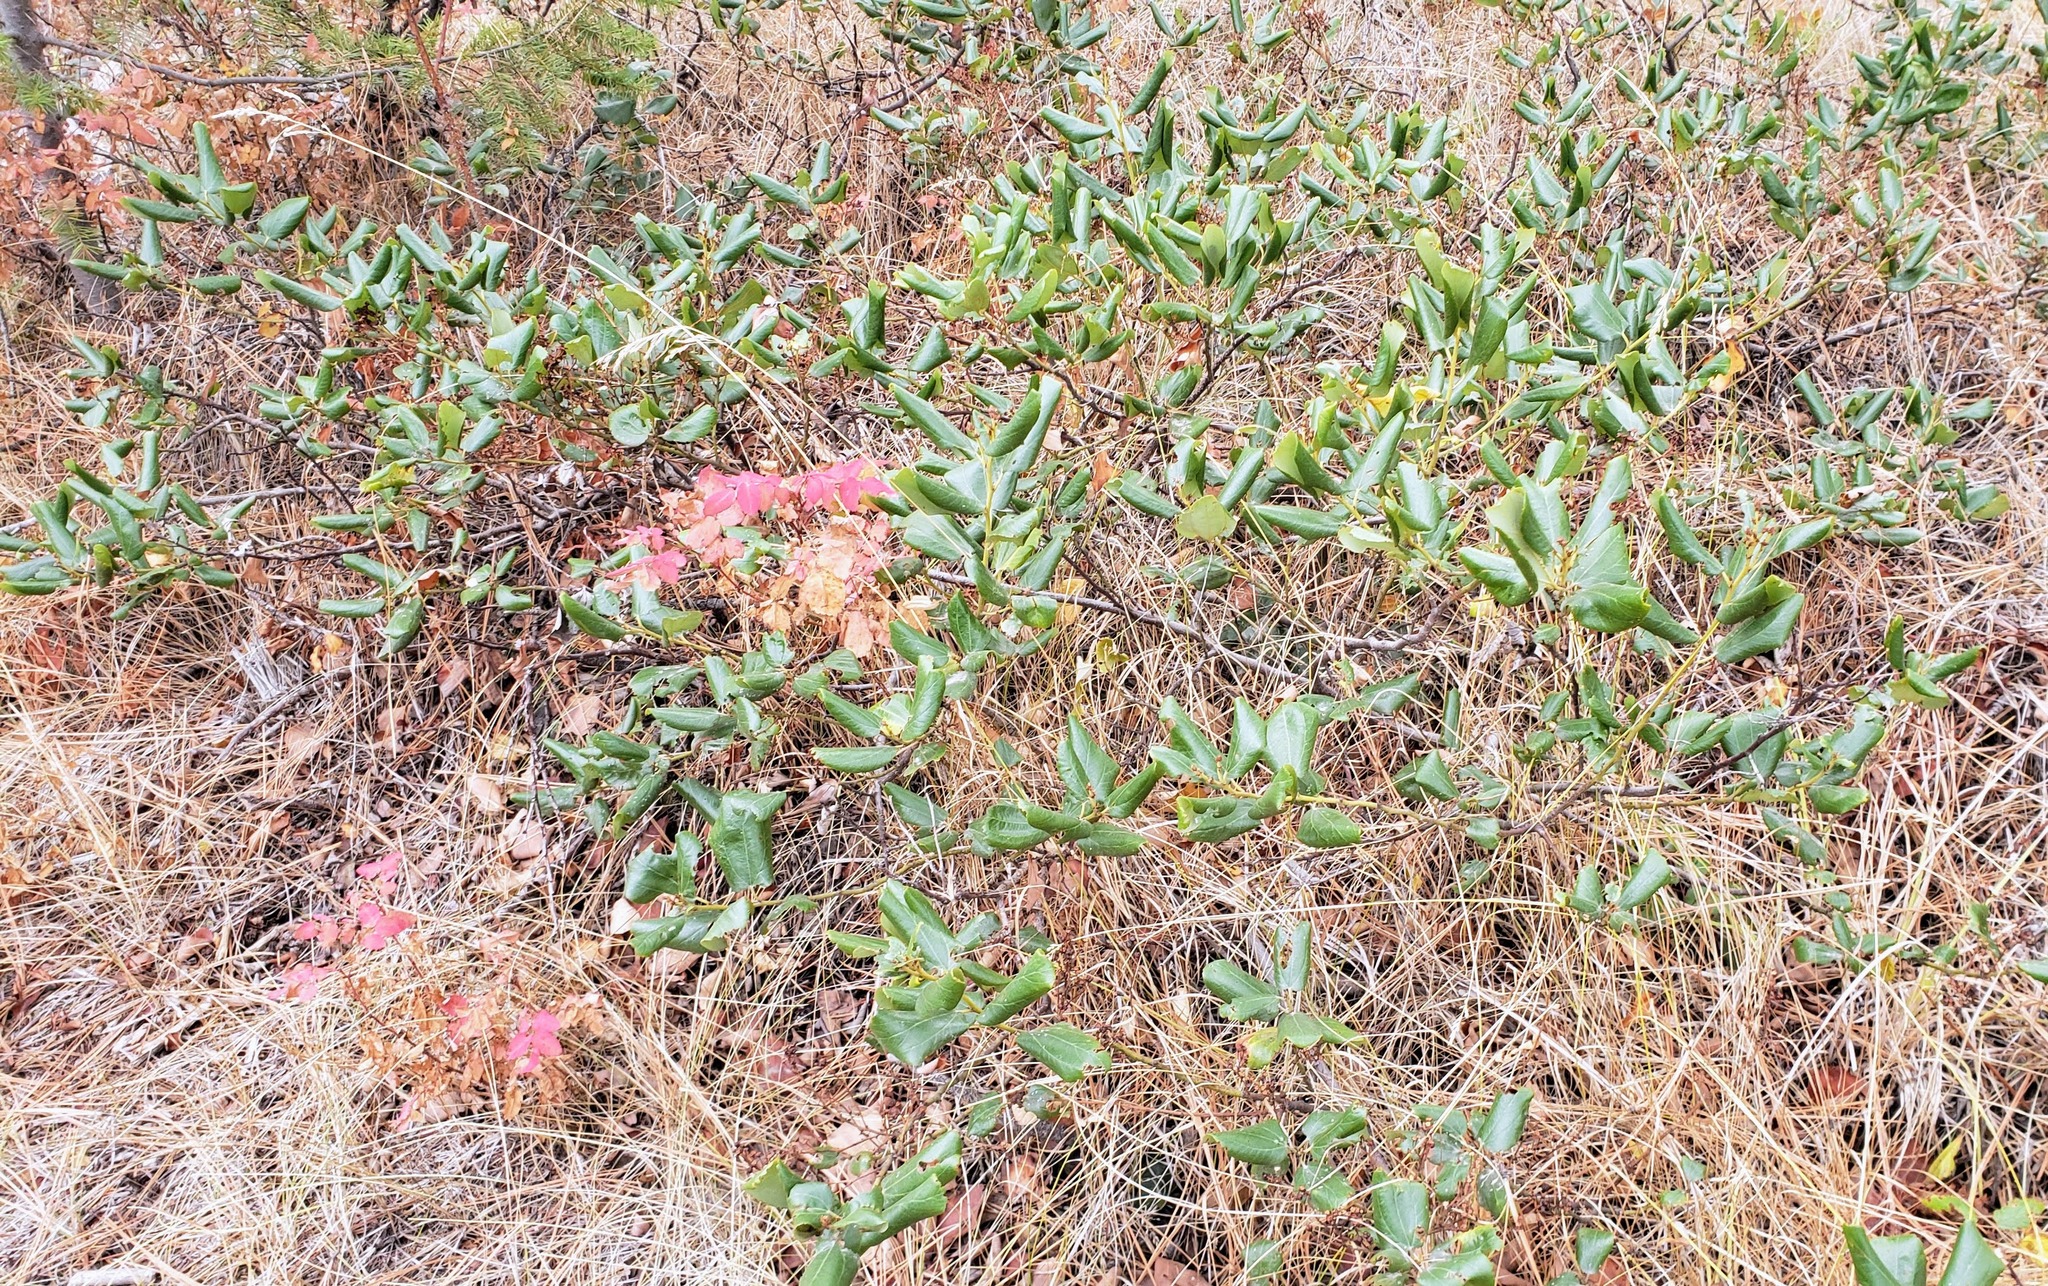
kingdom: Plantae
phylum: Tracheophyta
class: Magnoliopsida
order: Rosales
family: Rhamnaceae
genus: Ceanothus
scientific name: Ceanothus velutinus
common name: Snowbrush
